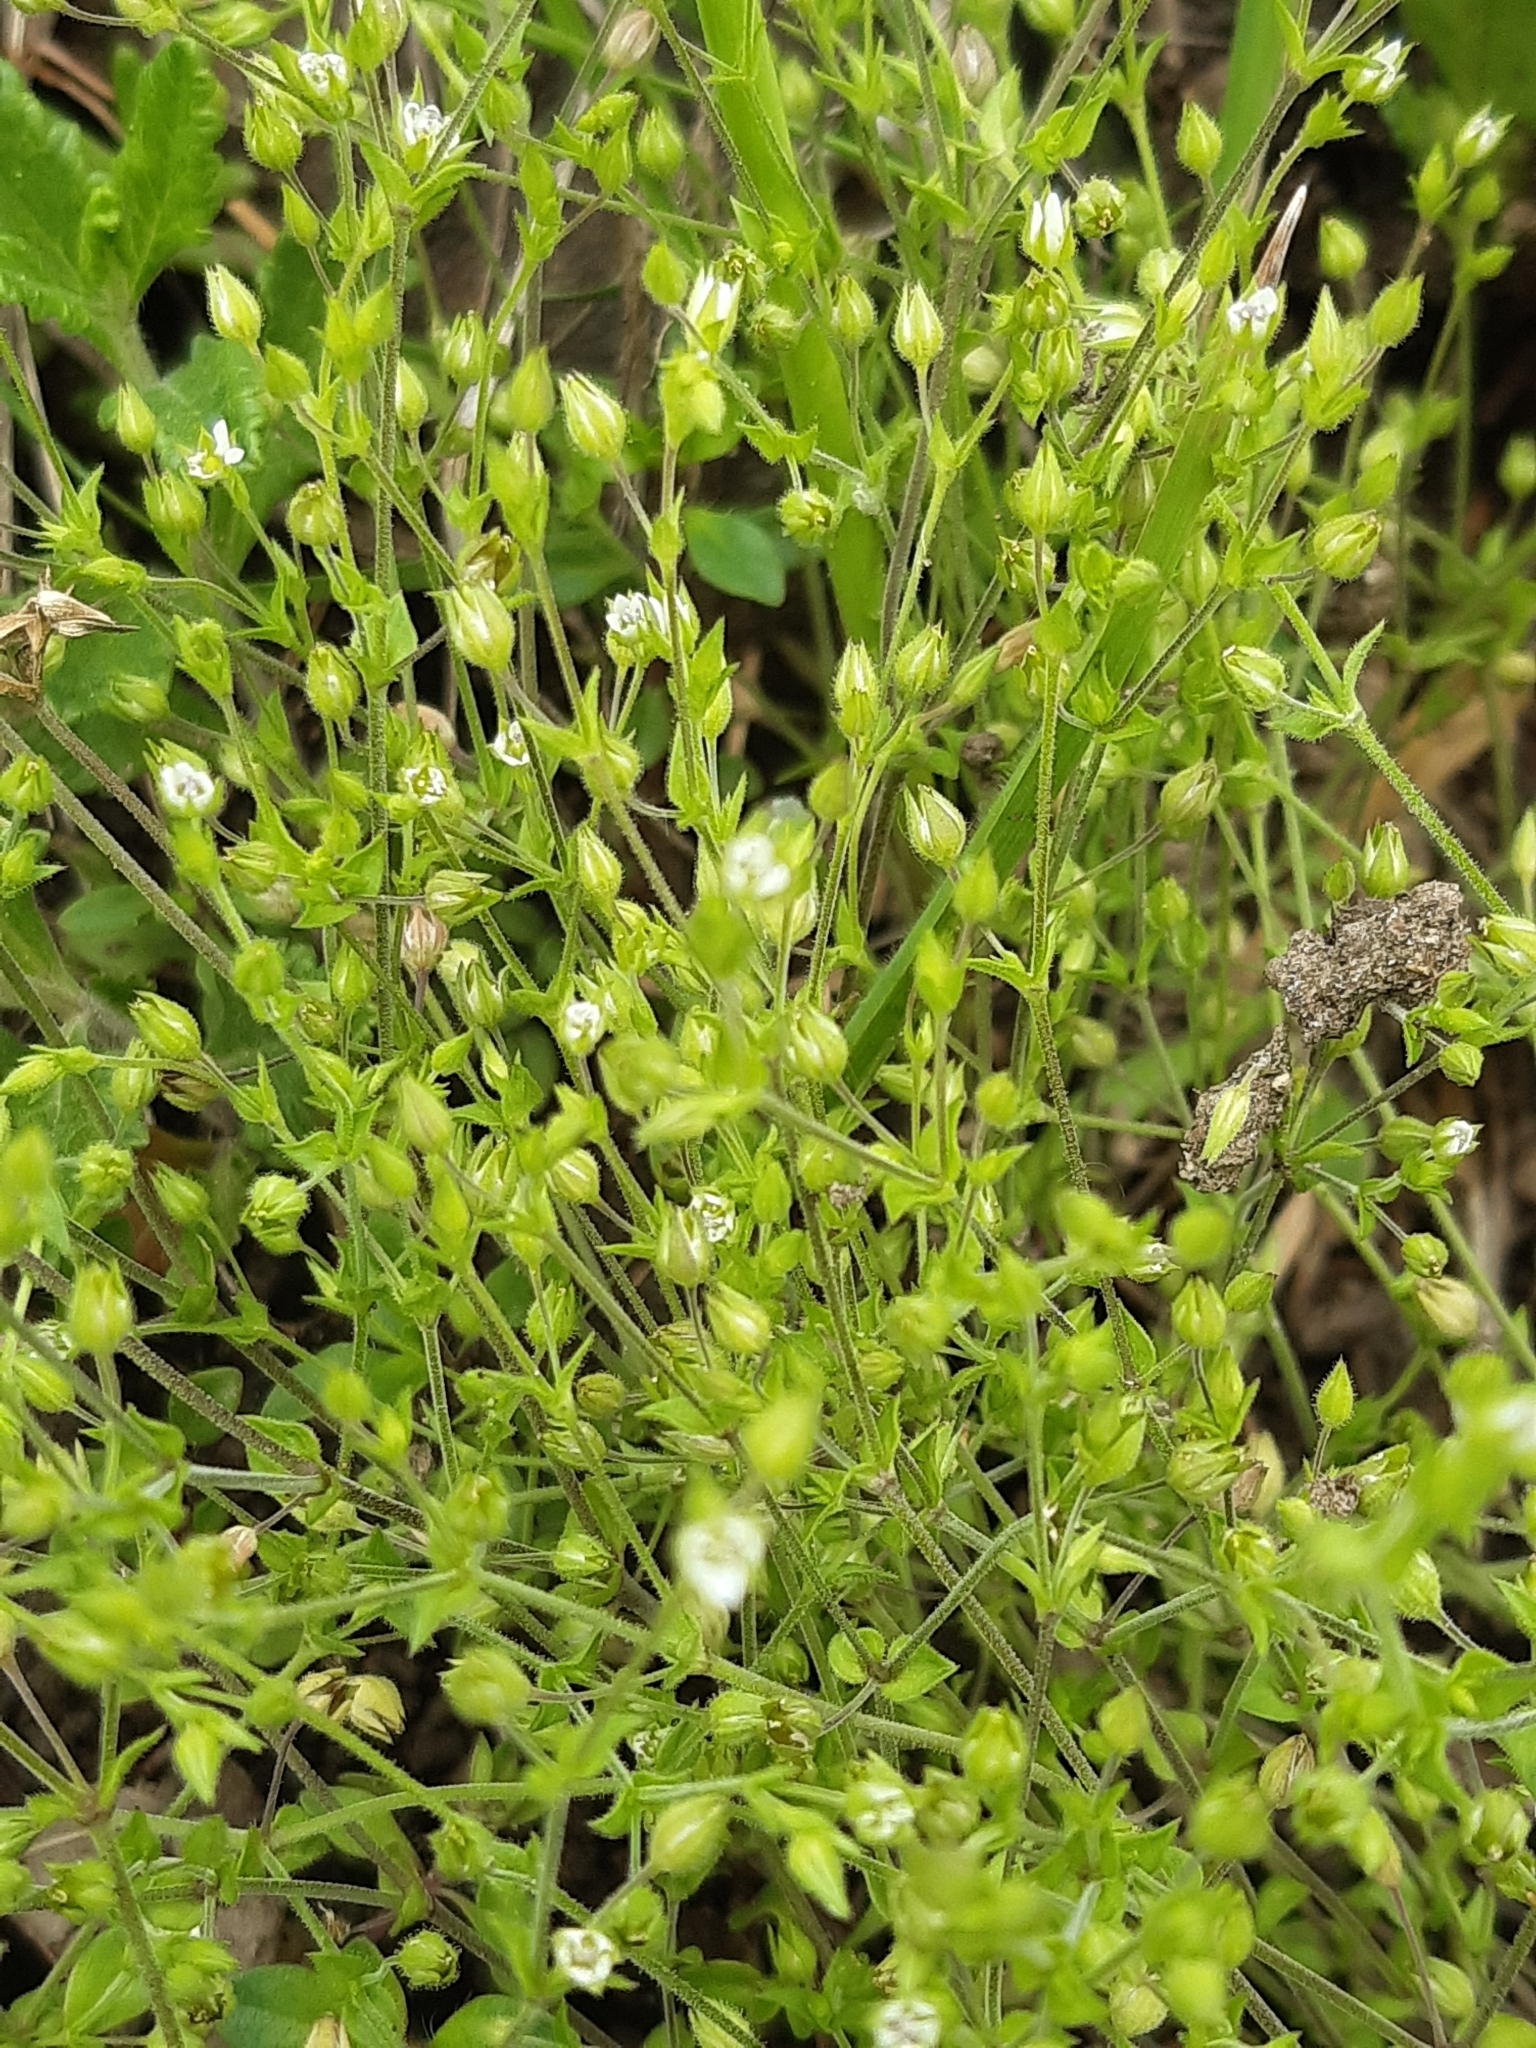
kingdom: Plantae
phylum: Tracheophyta
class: Magnoliopsida
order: Caryophyllales
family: Caryophyllaceae
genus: Arenaria
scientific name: Arenaria serpyllifolia
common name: Thyme-leaved sandwort
